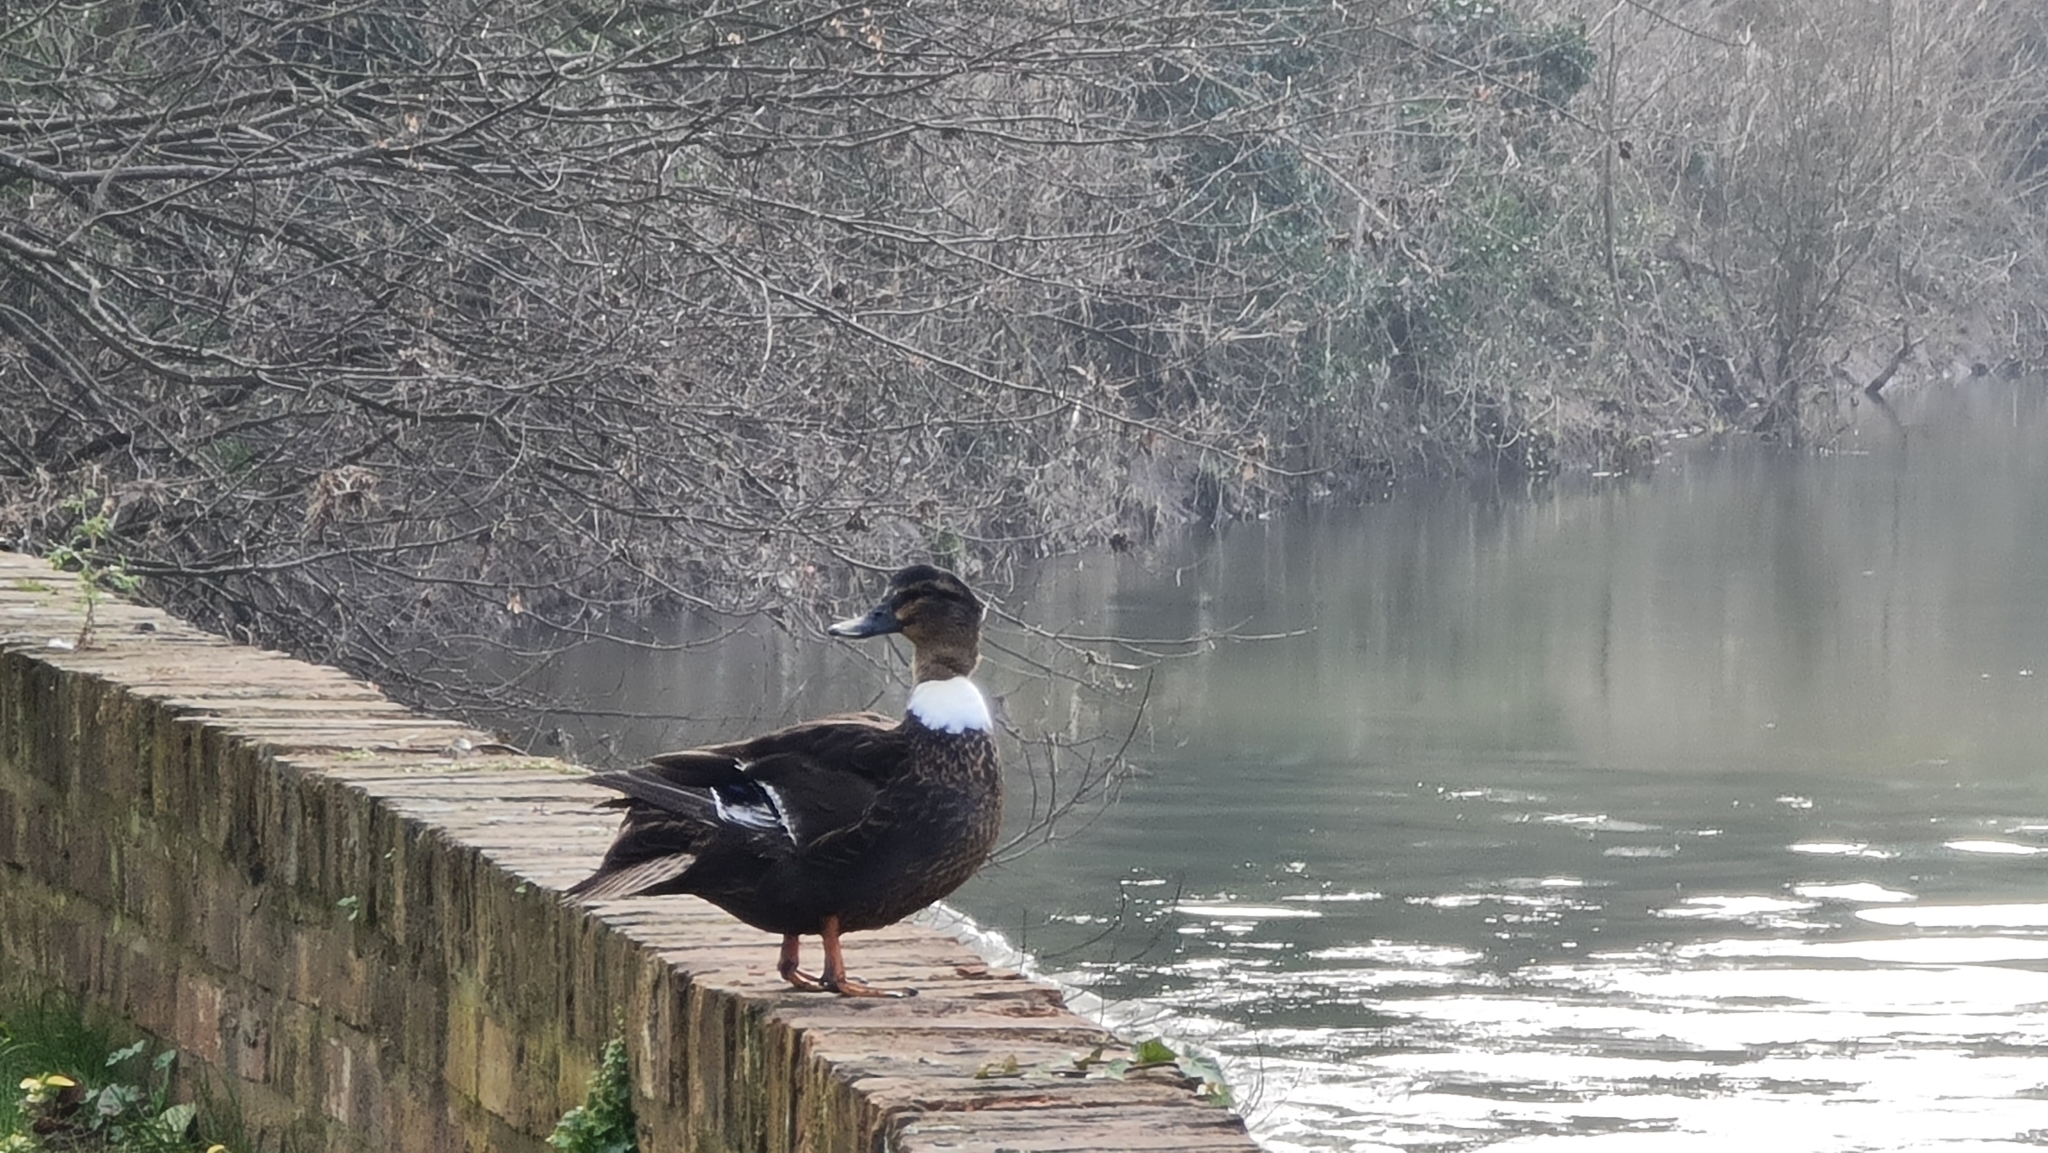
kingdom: Animalia
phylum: Chordata
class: Aves
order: Anseriformes
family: Anatidae
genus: Anas
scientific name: Anas platyrhynchos
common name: Mallard
